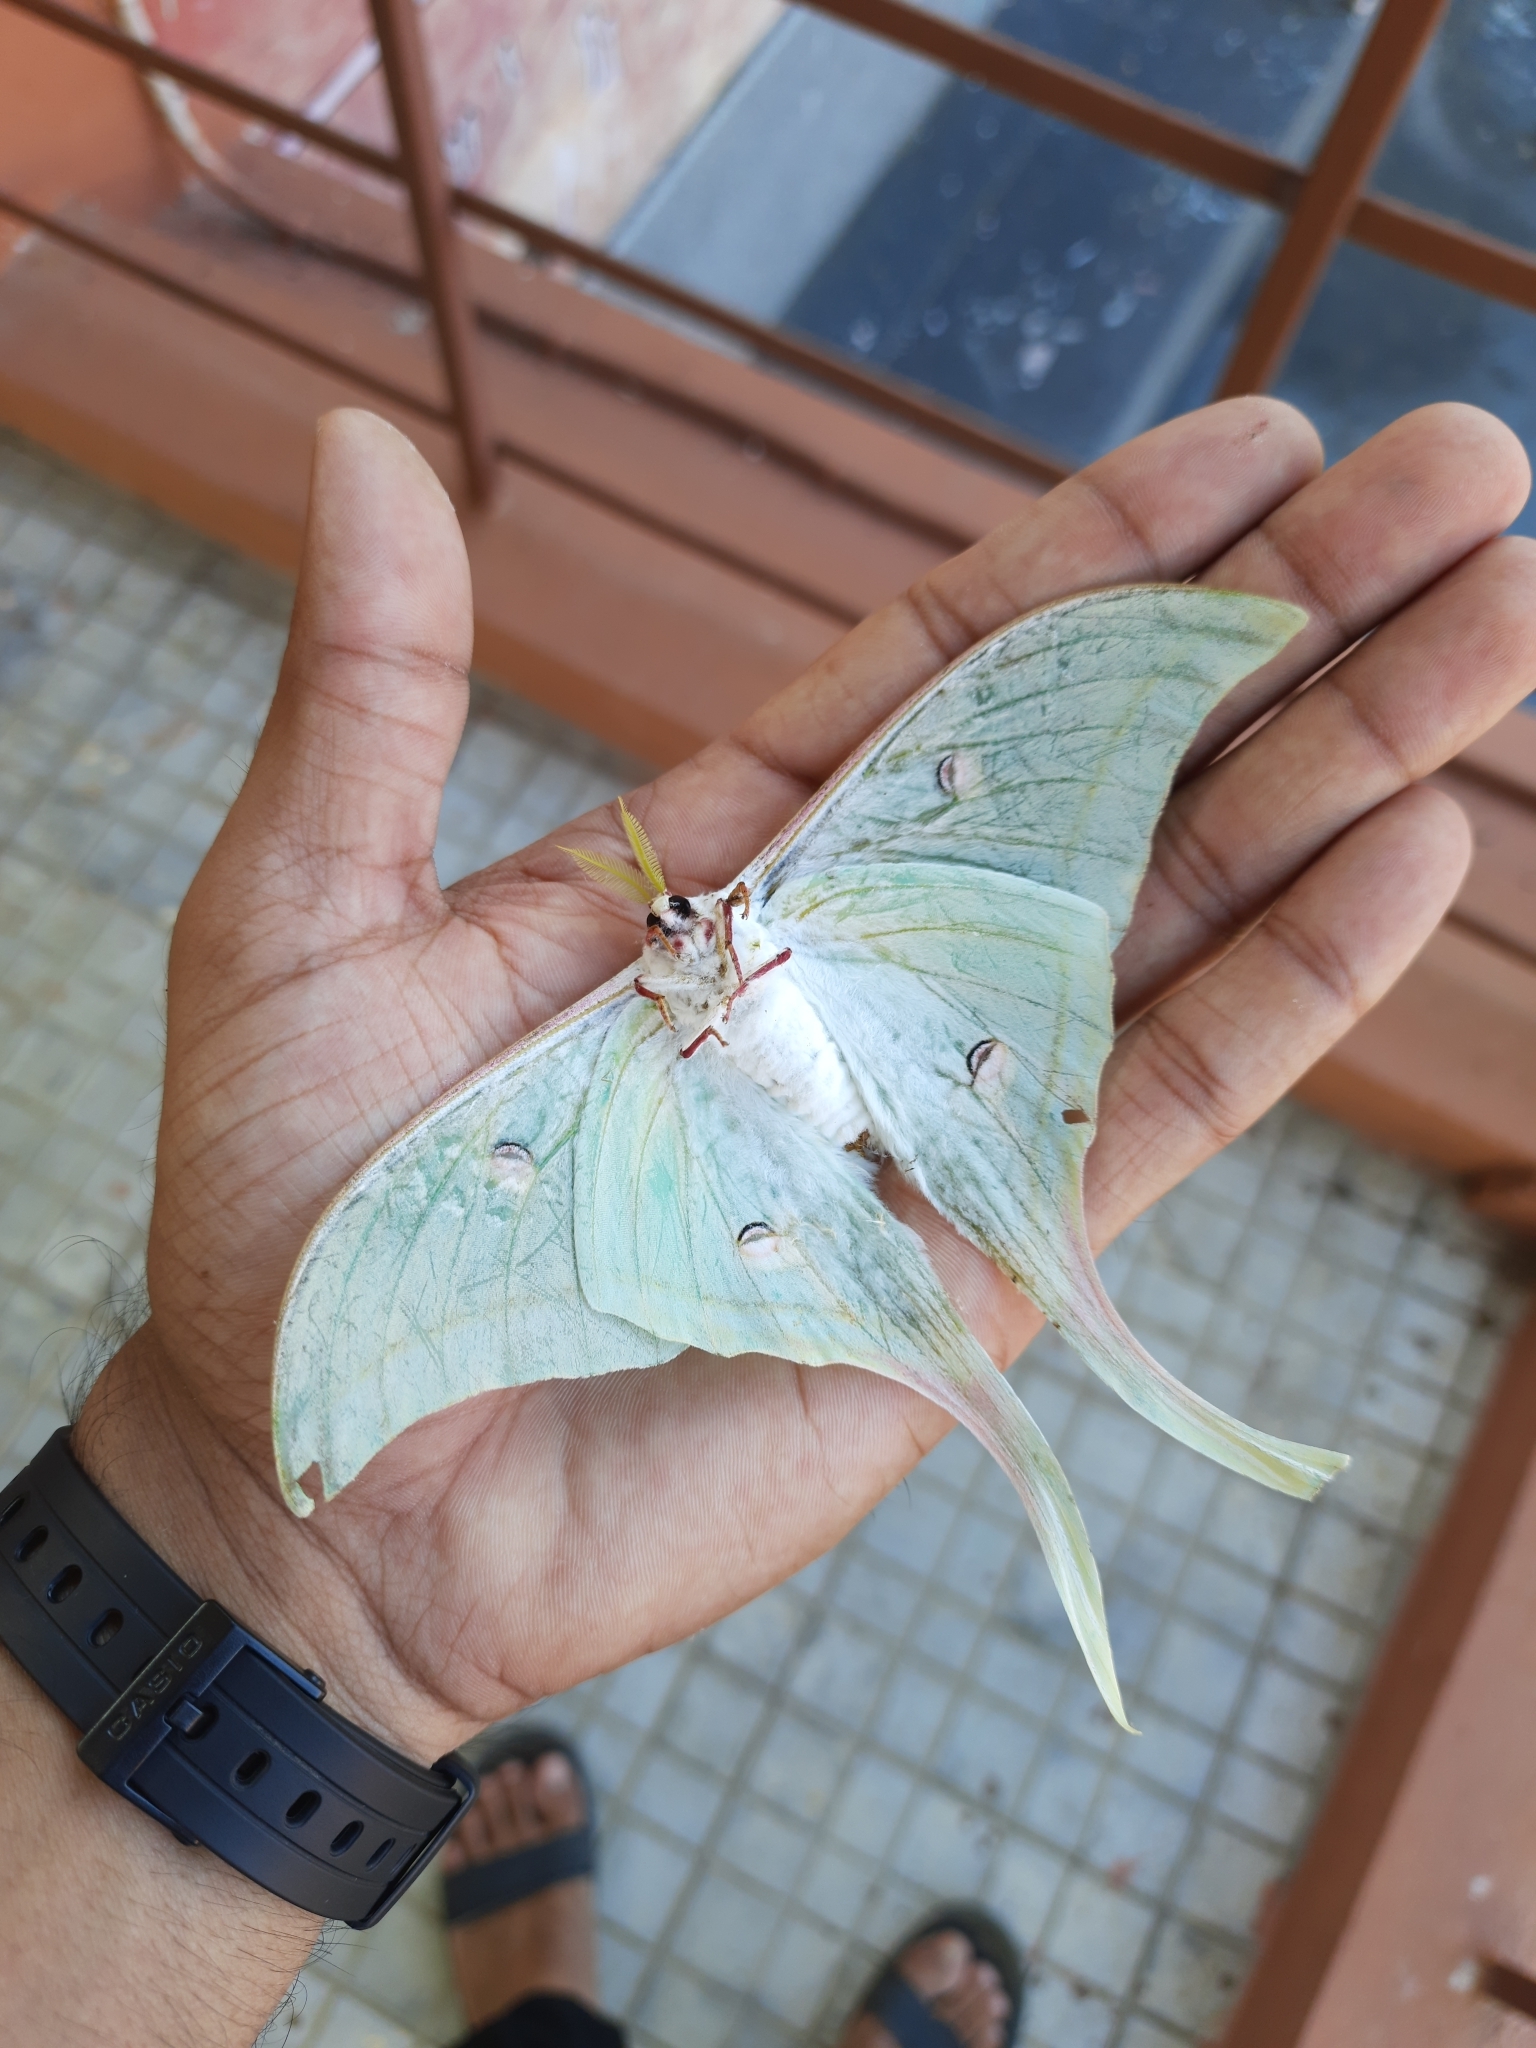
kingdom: Animalia
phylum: Arthropoda
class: Insecta
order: Lepidoptera
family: Saturniidae
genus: Actias
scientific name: Actias selene
